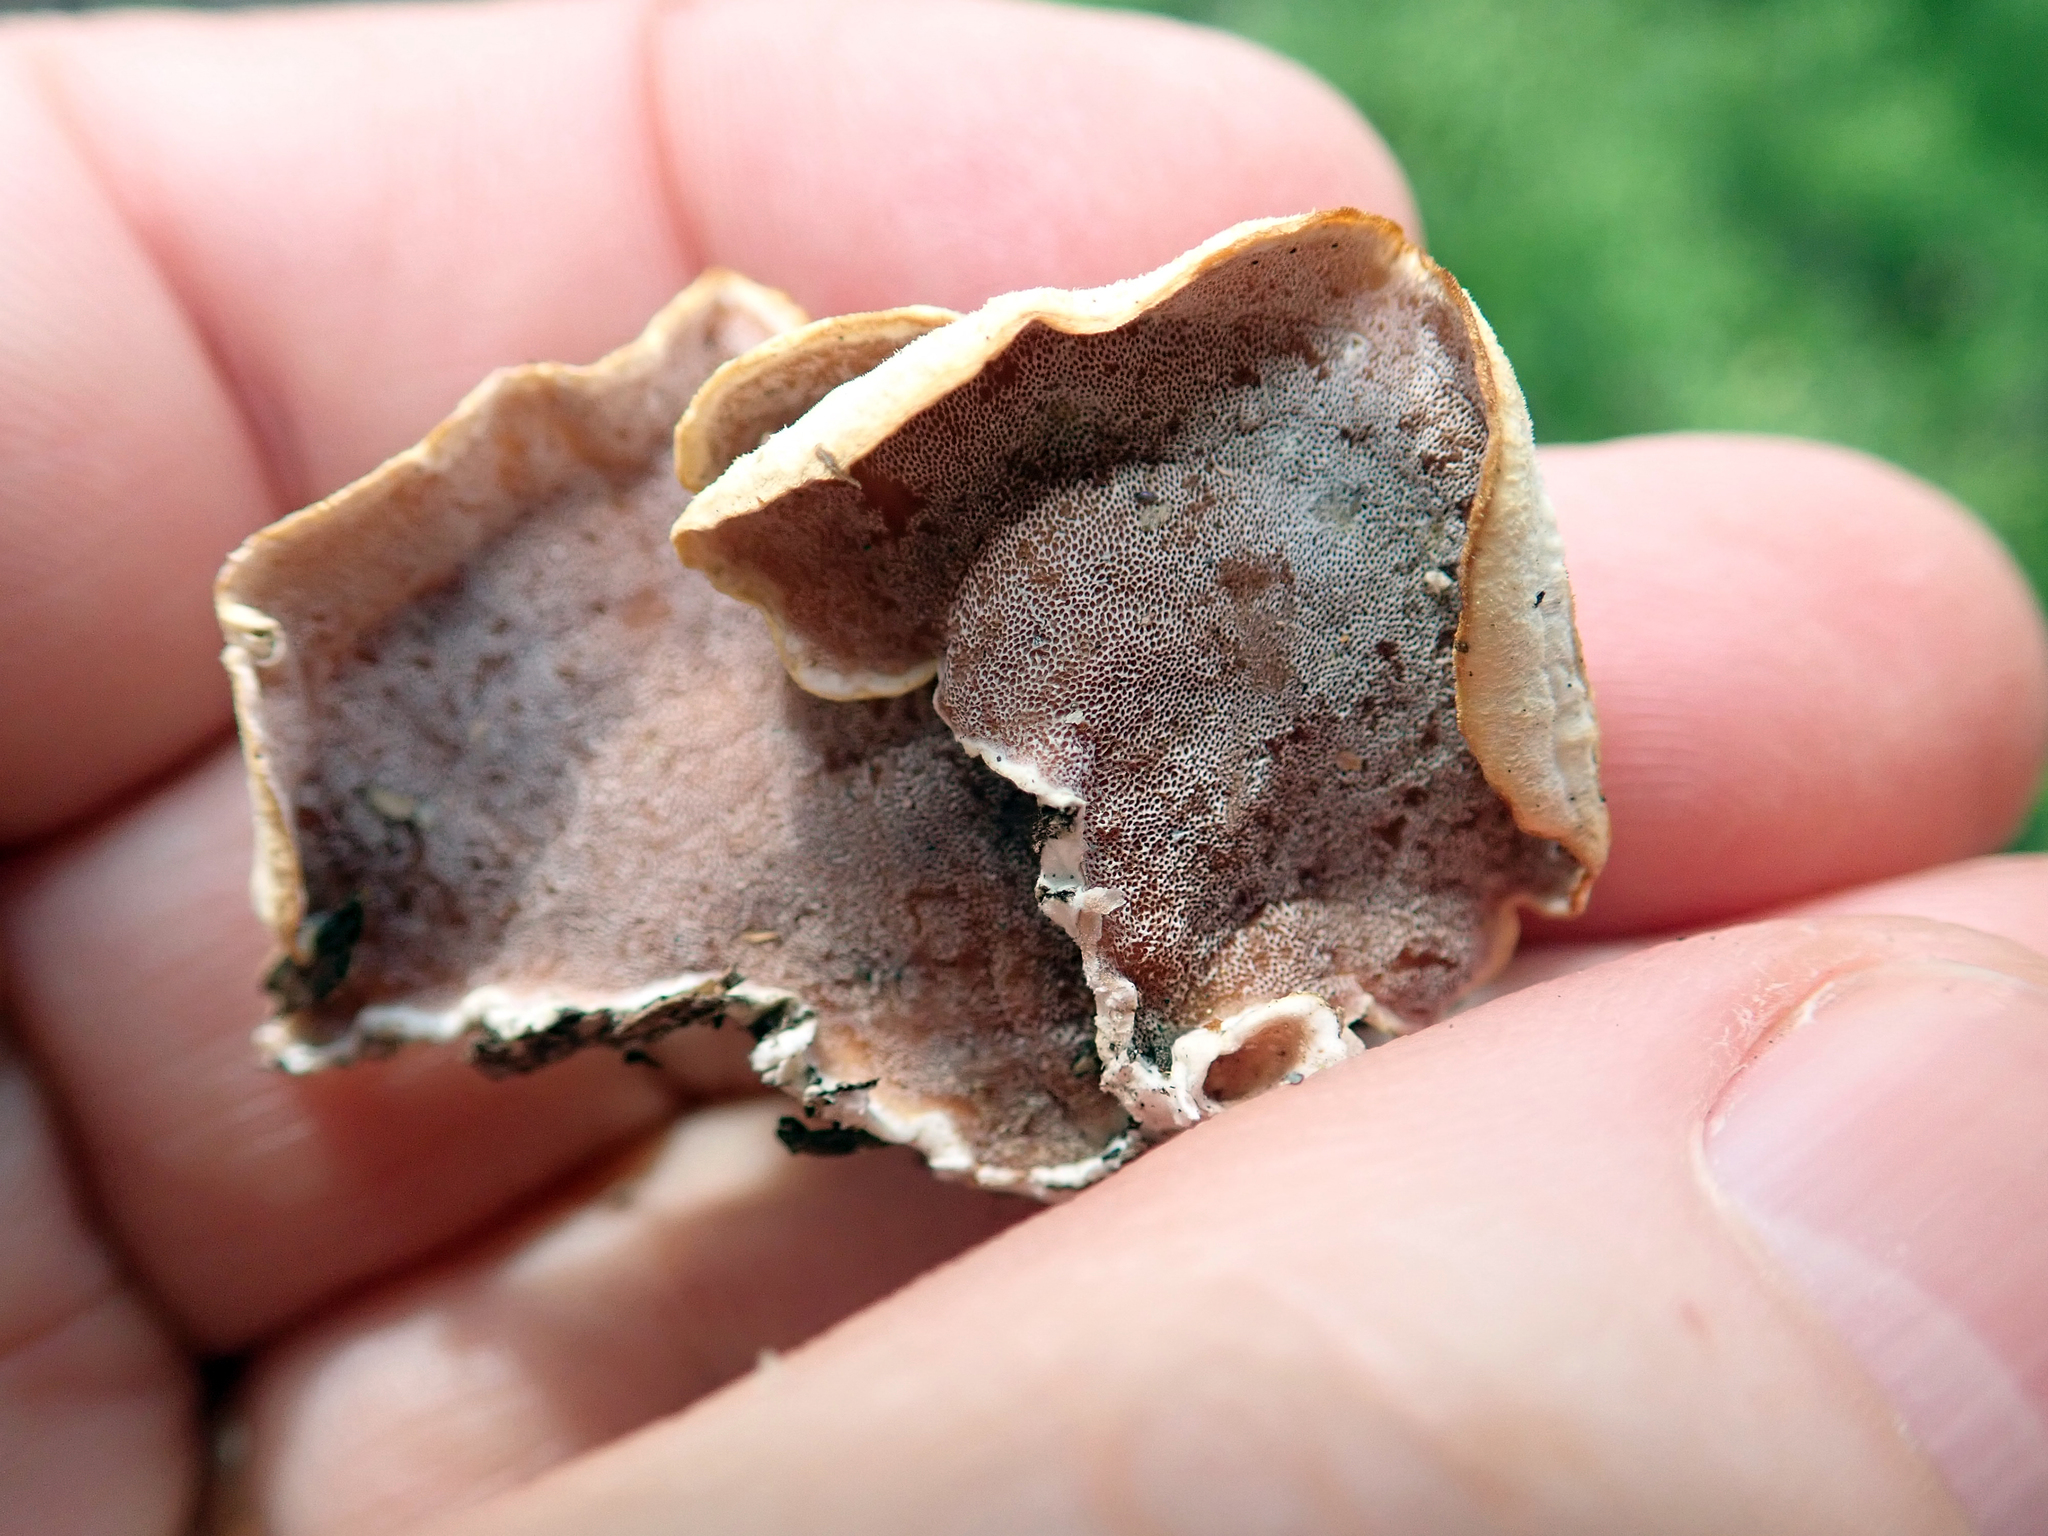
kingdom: Fungi
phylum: Basidiomycota
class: Agaricomycetes
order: Polyporales
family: Irpicaceae
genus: Vitreoporus
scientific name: Vitreoporus dichrous
